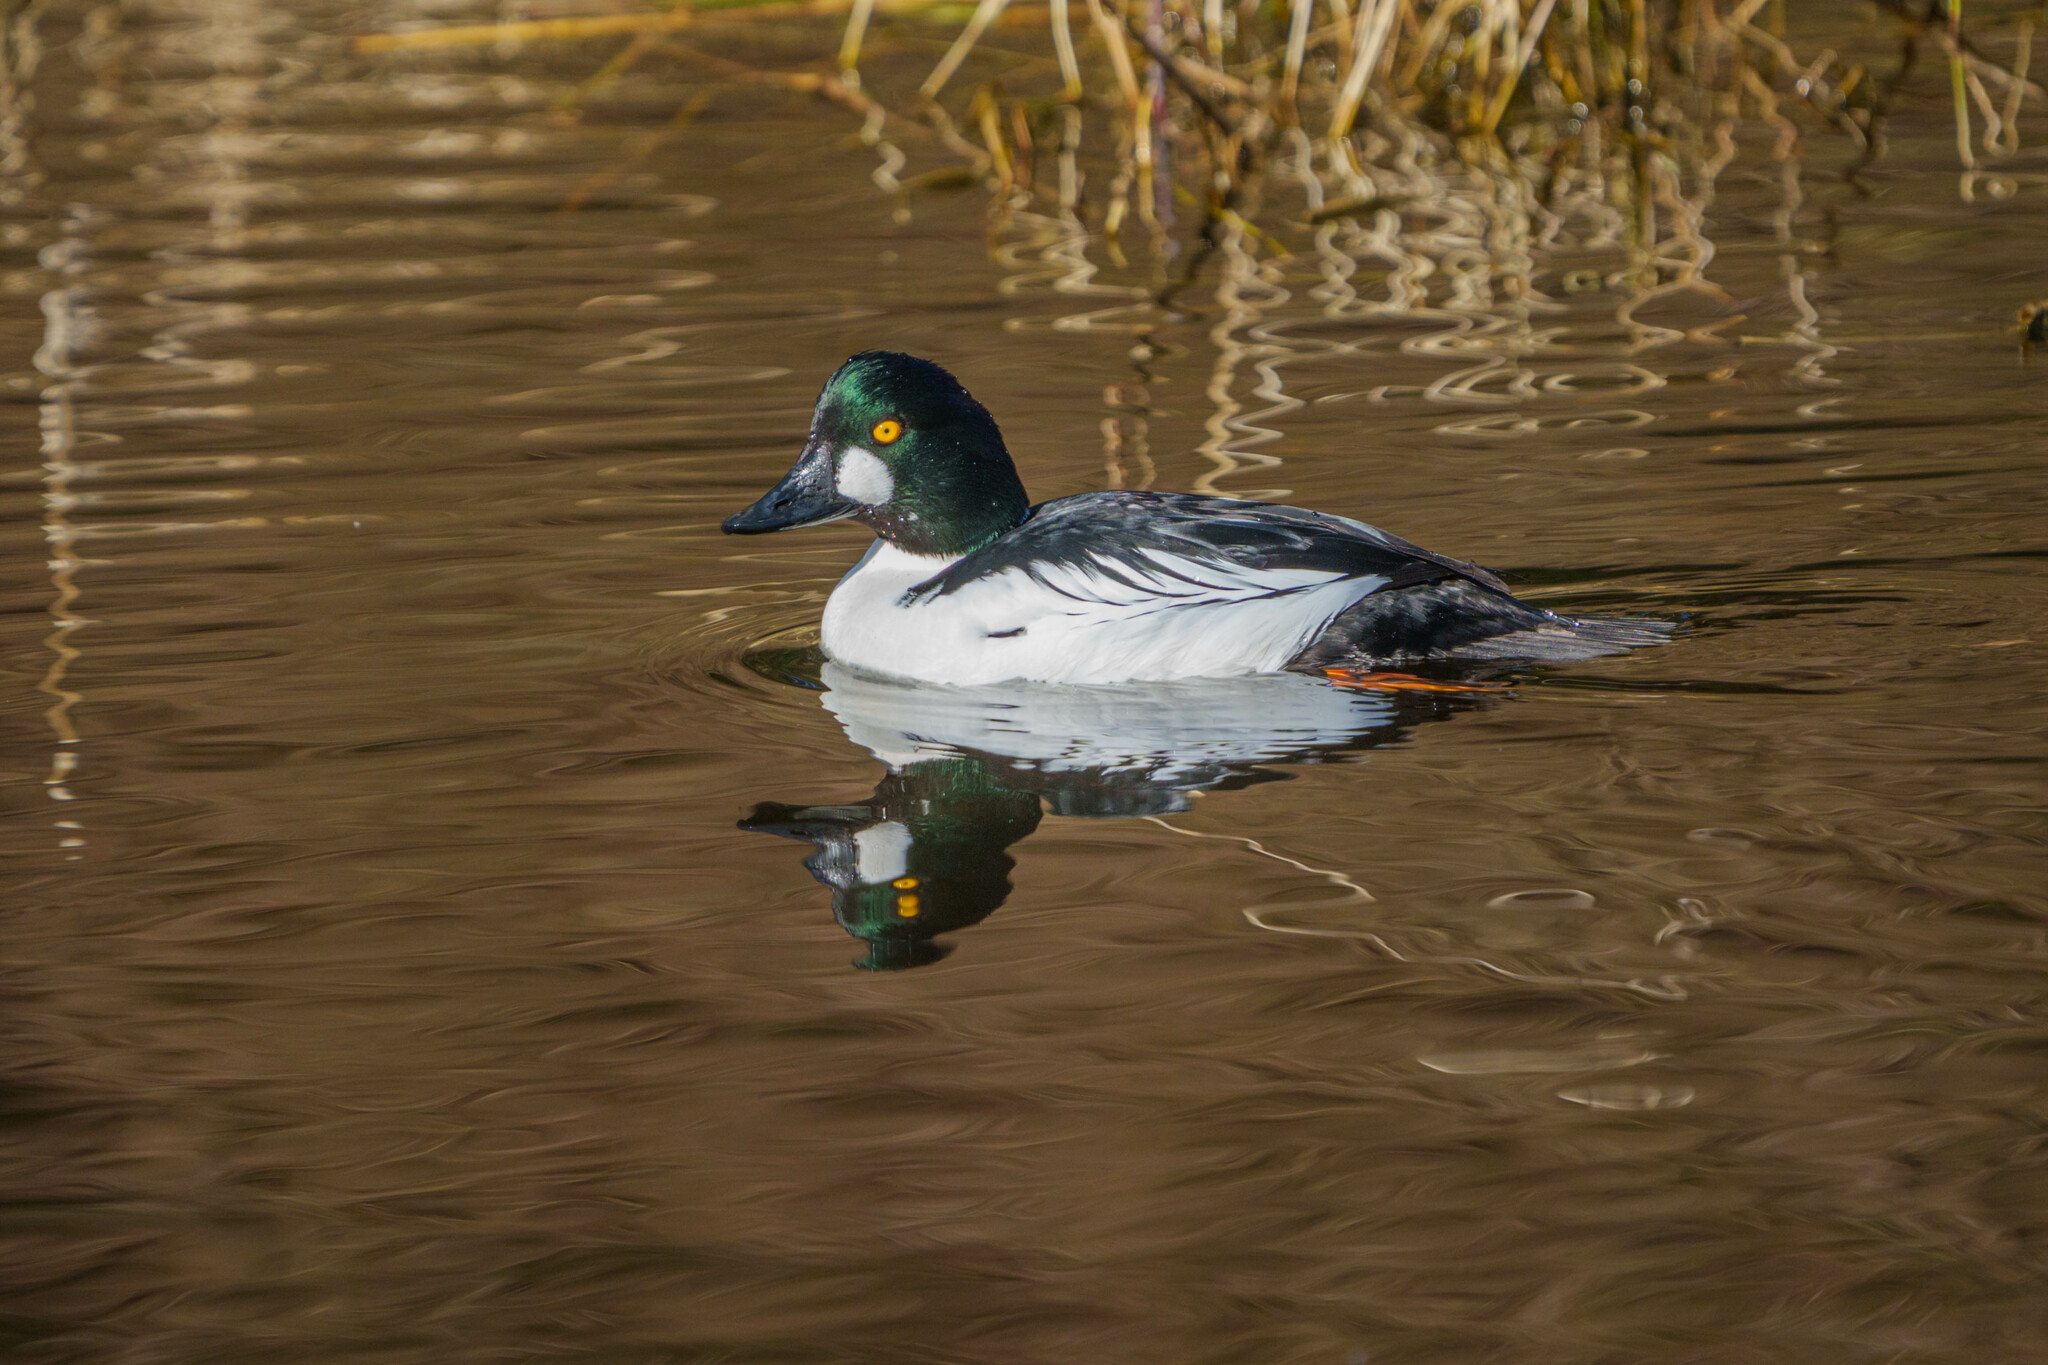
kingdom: Animalia
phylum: Chordata
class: Aves
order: Anseriformes
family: Anatidae
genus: Bucephala
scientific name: Bucephala clangula
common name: Common goldeneye
